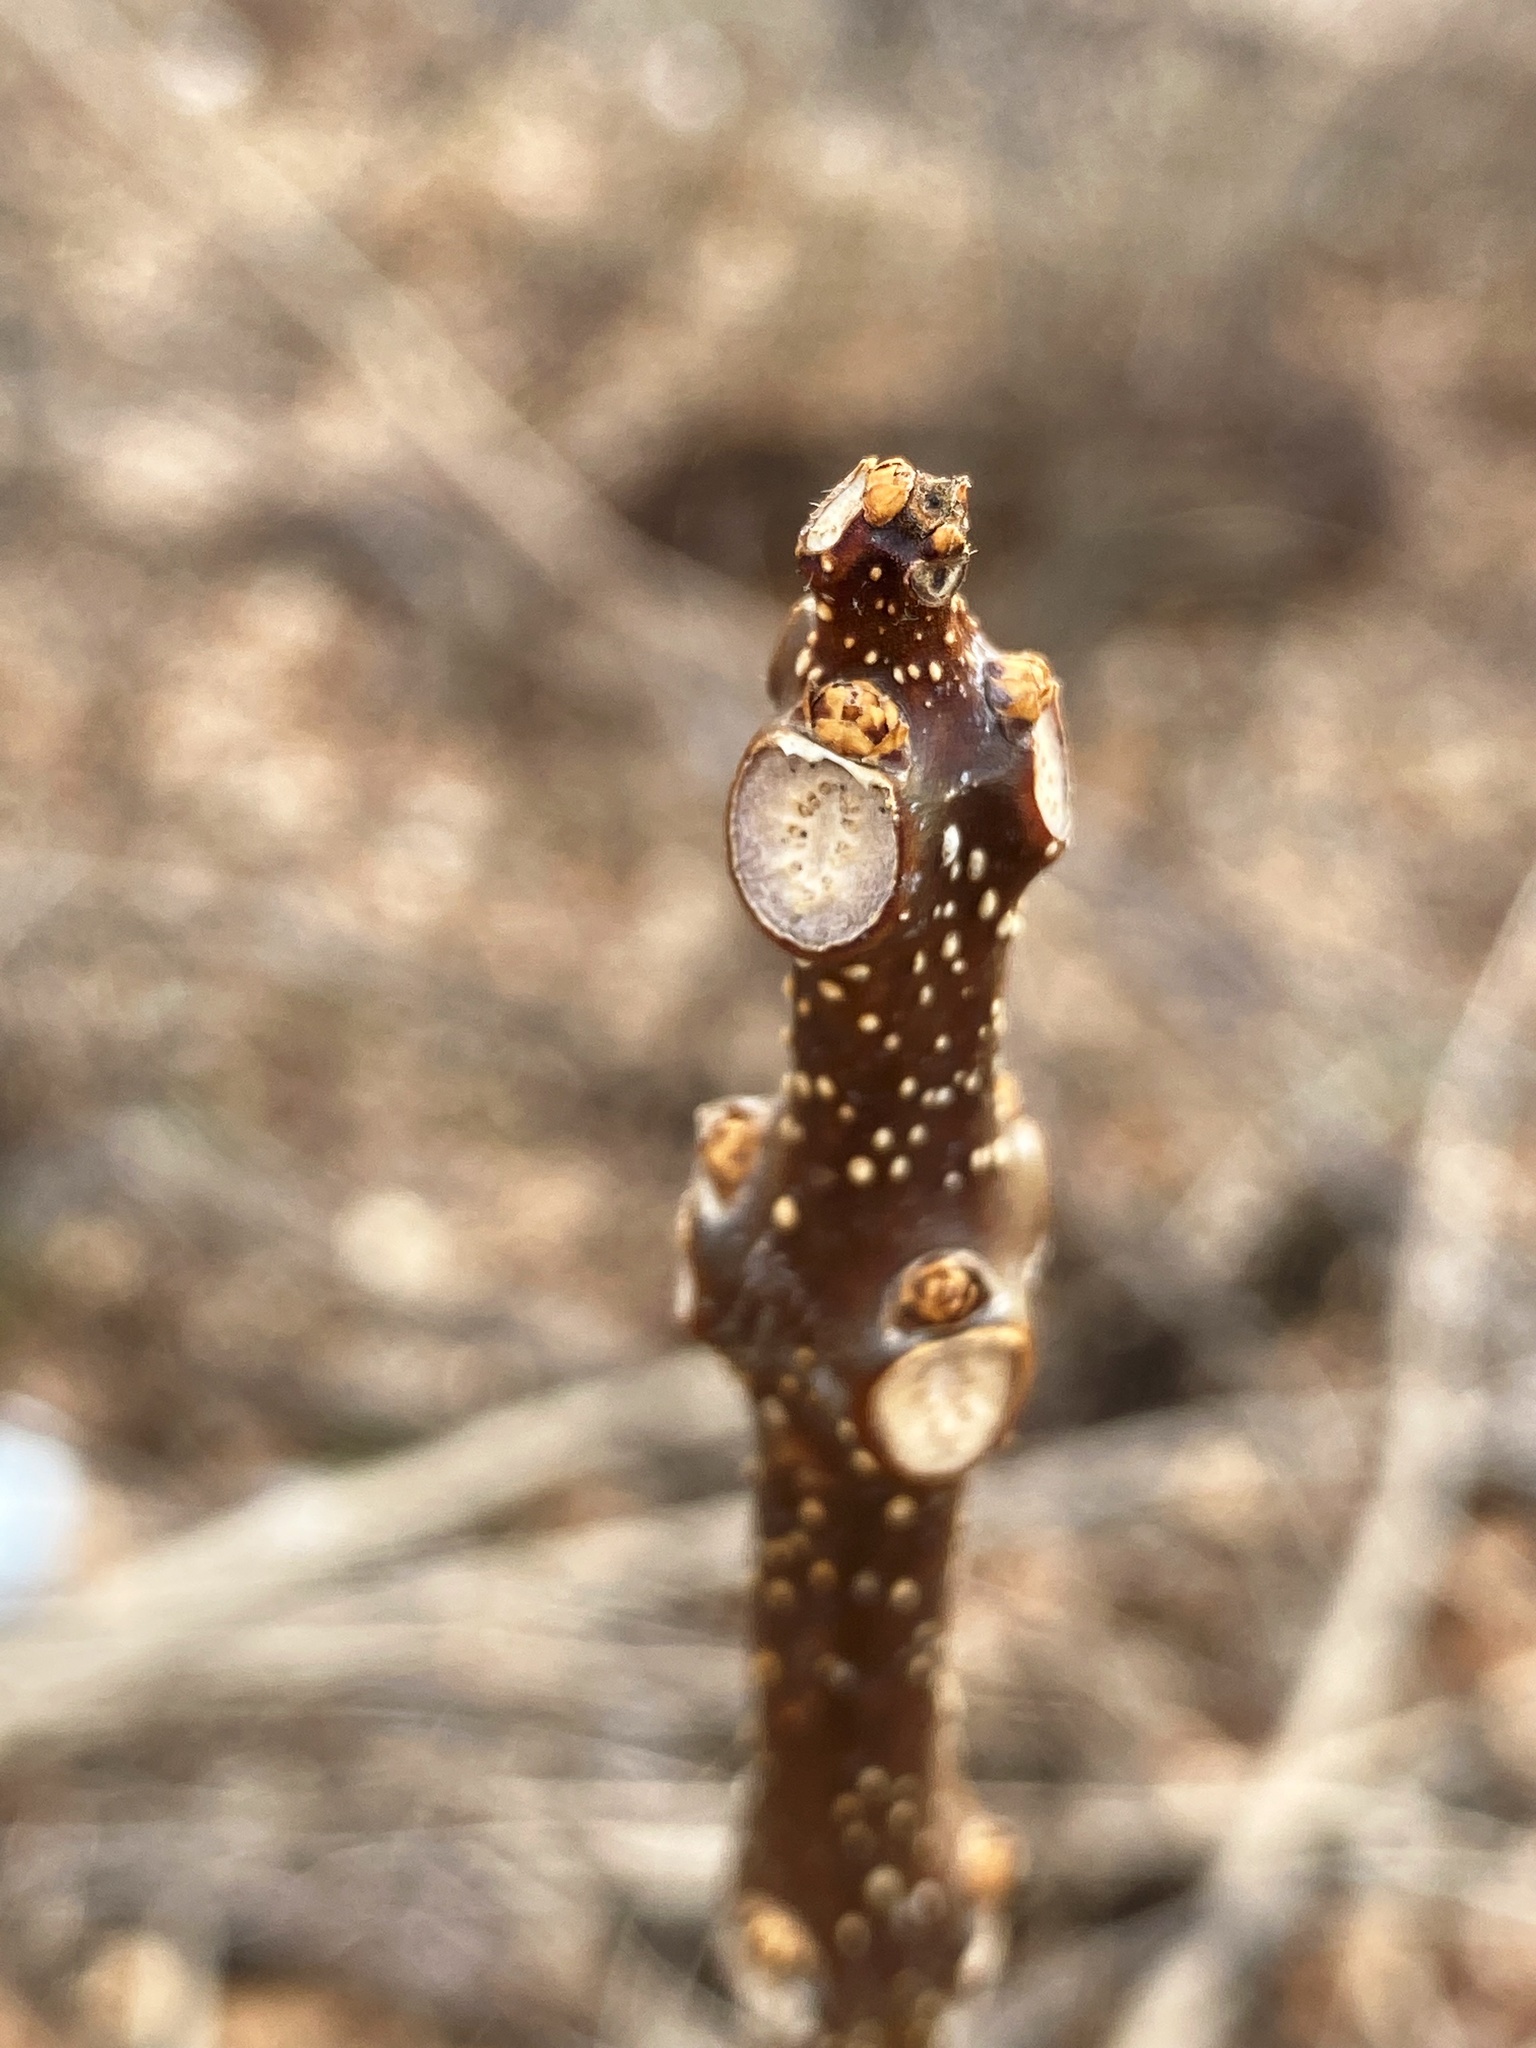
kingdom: Plantae
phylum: Tracheophyta
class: Magnoliopsida
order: Lamiales
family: Bignoniaceae
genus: Catalpa
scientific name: Catalpa
